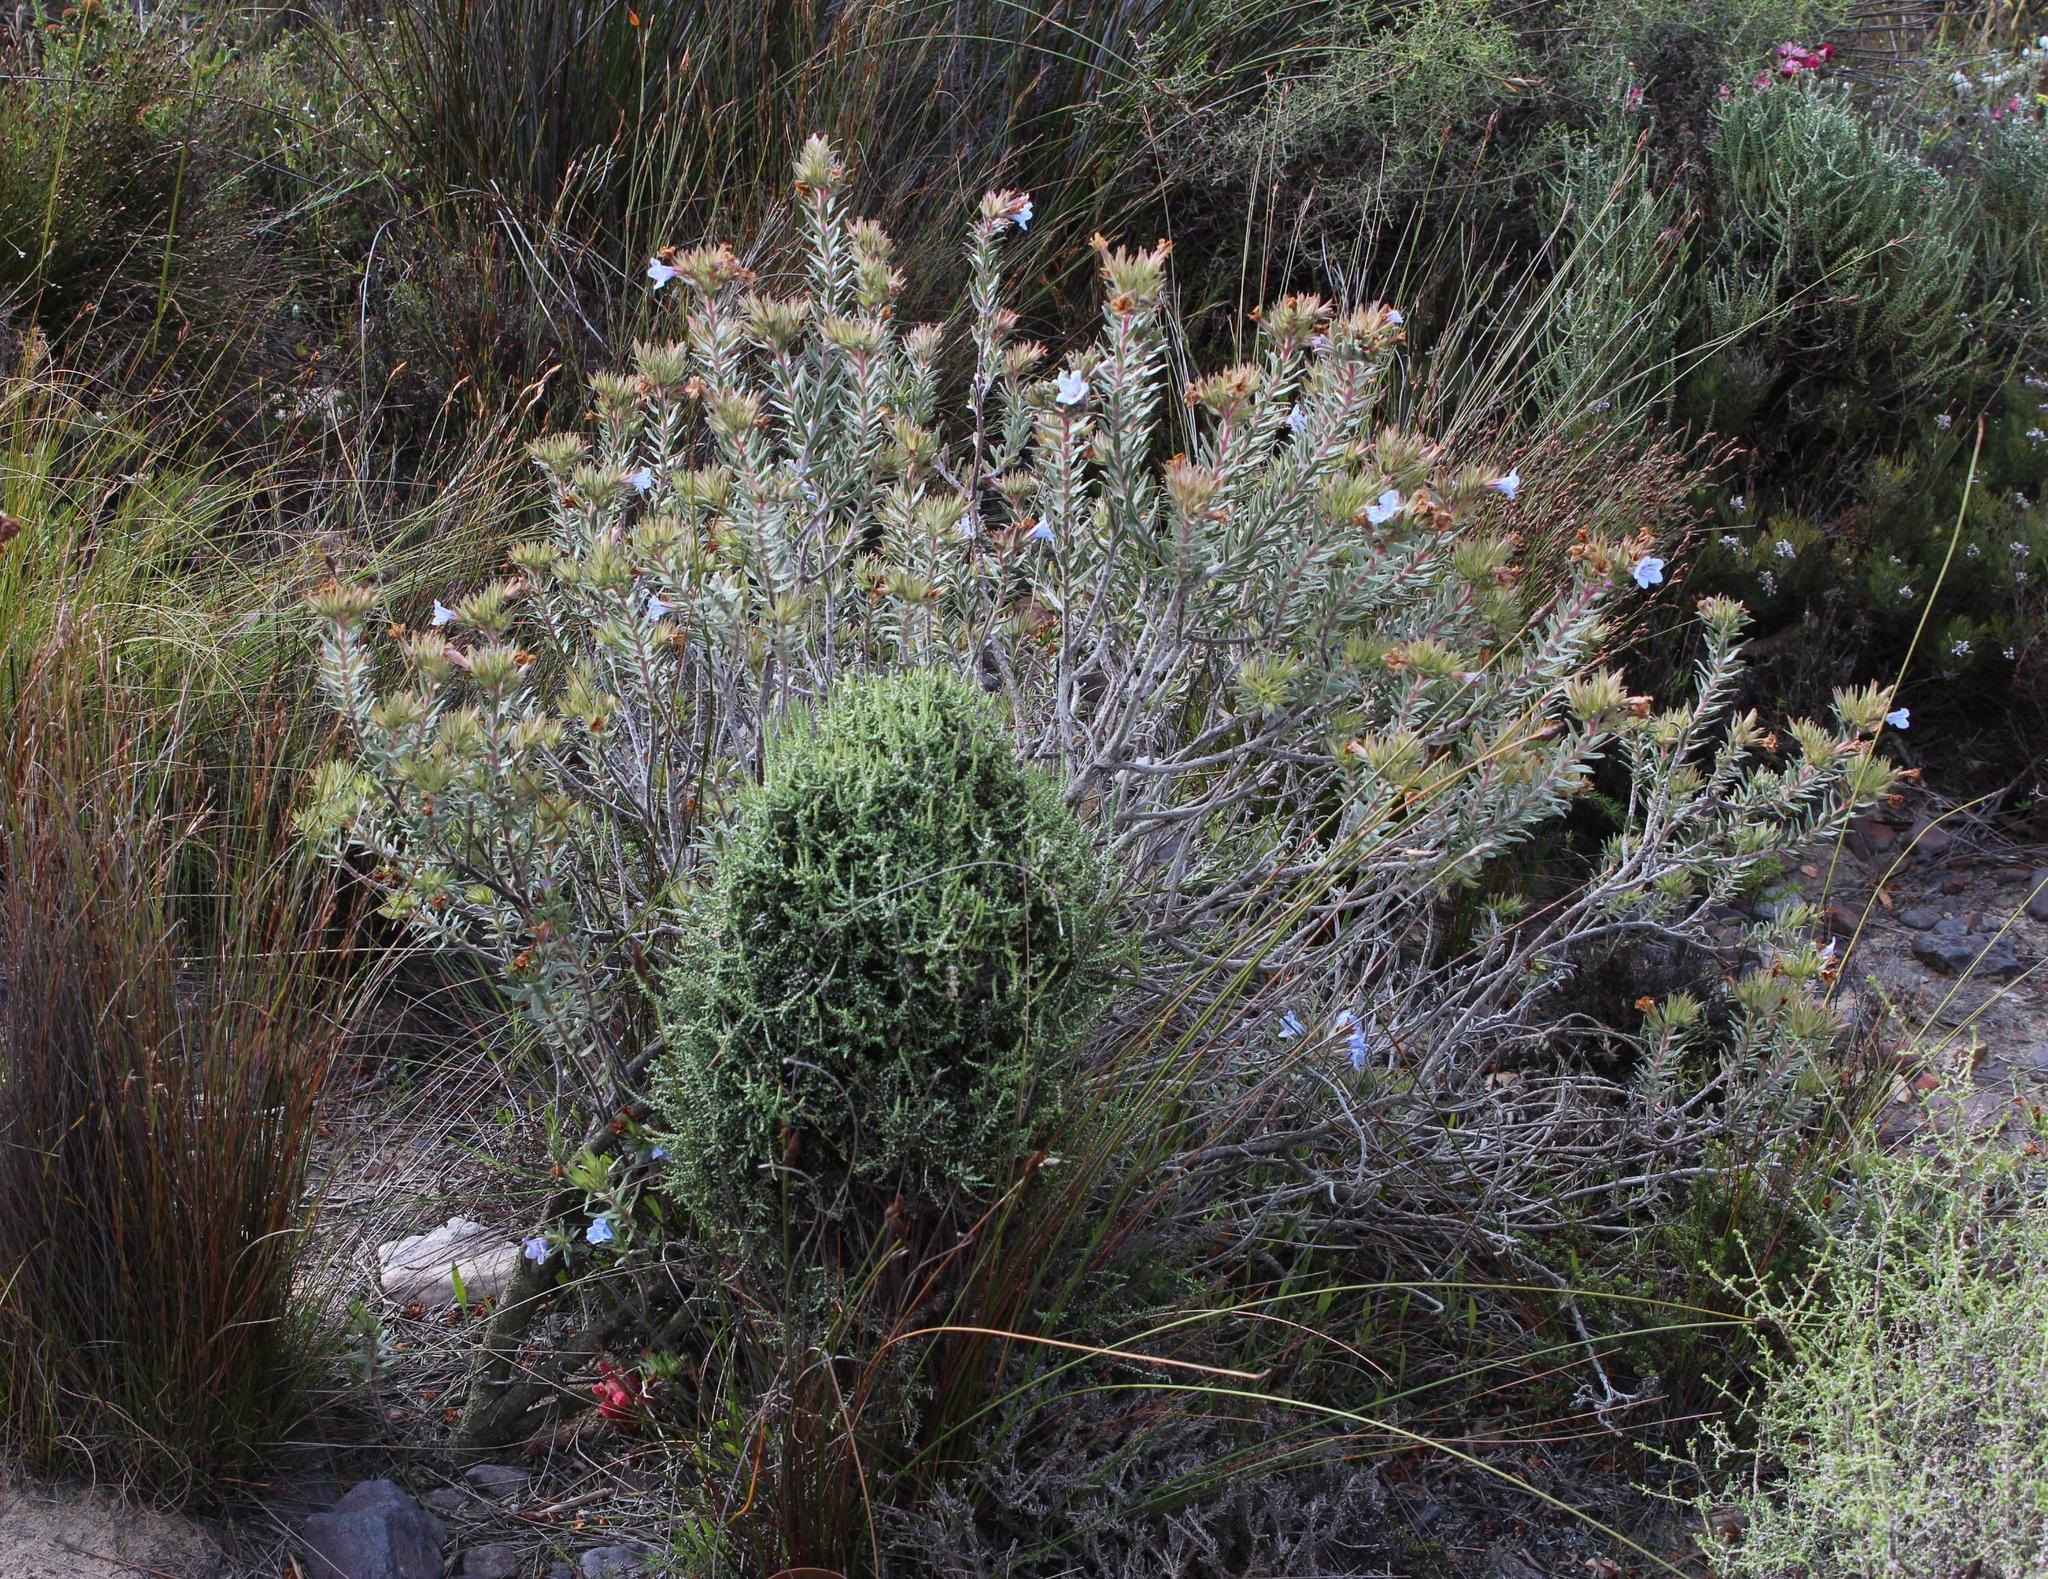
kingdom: Plantae
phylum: Tracheophyta
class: Magnoliopsida
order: Boraginales
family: Boraginaceae
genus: Lobostemon
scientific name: Lobostemon fruticosus
